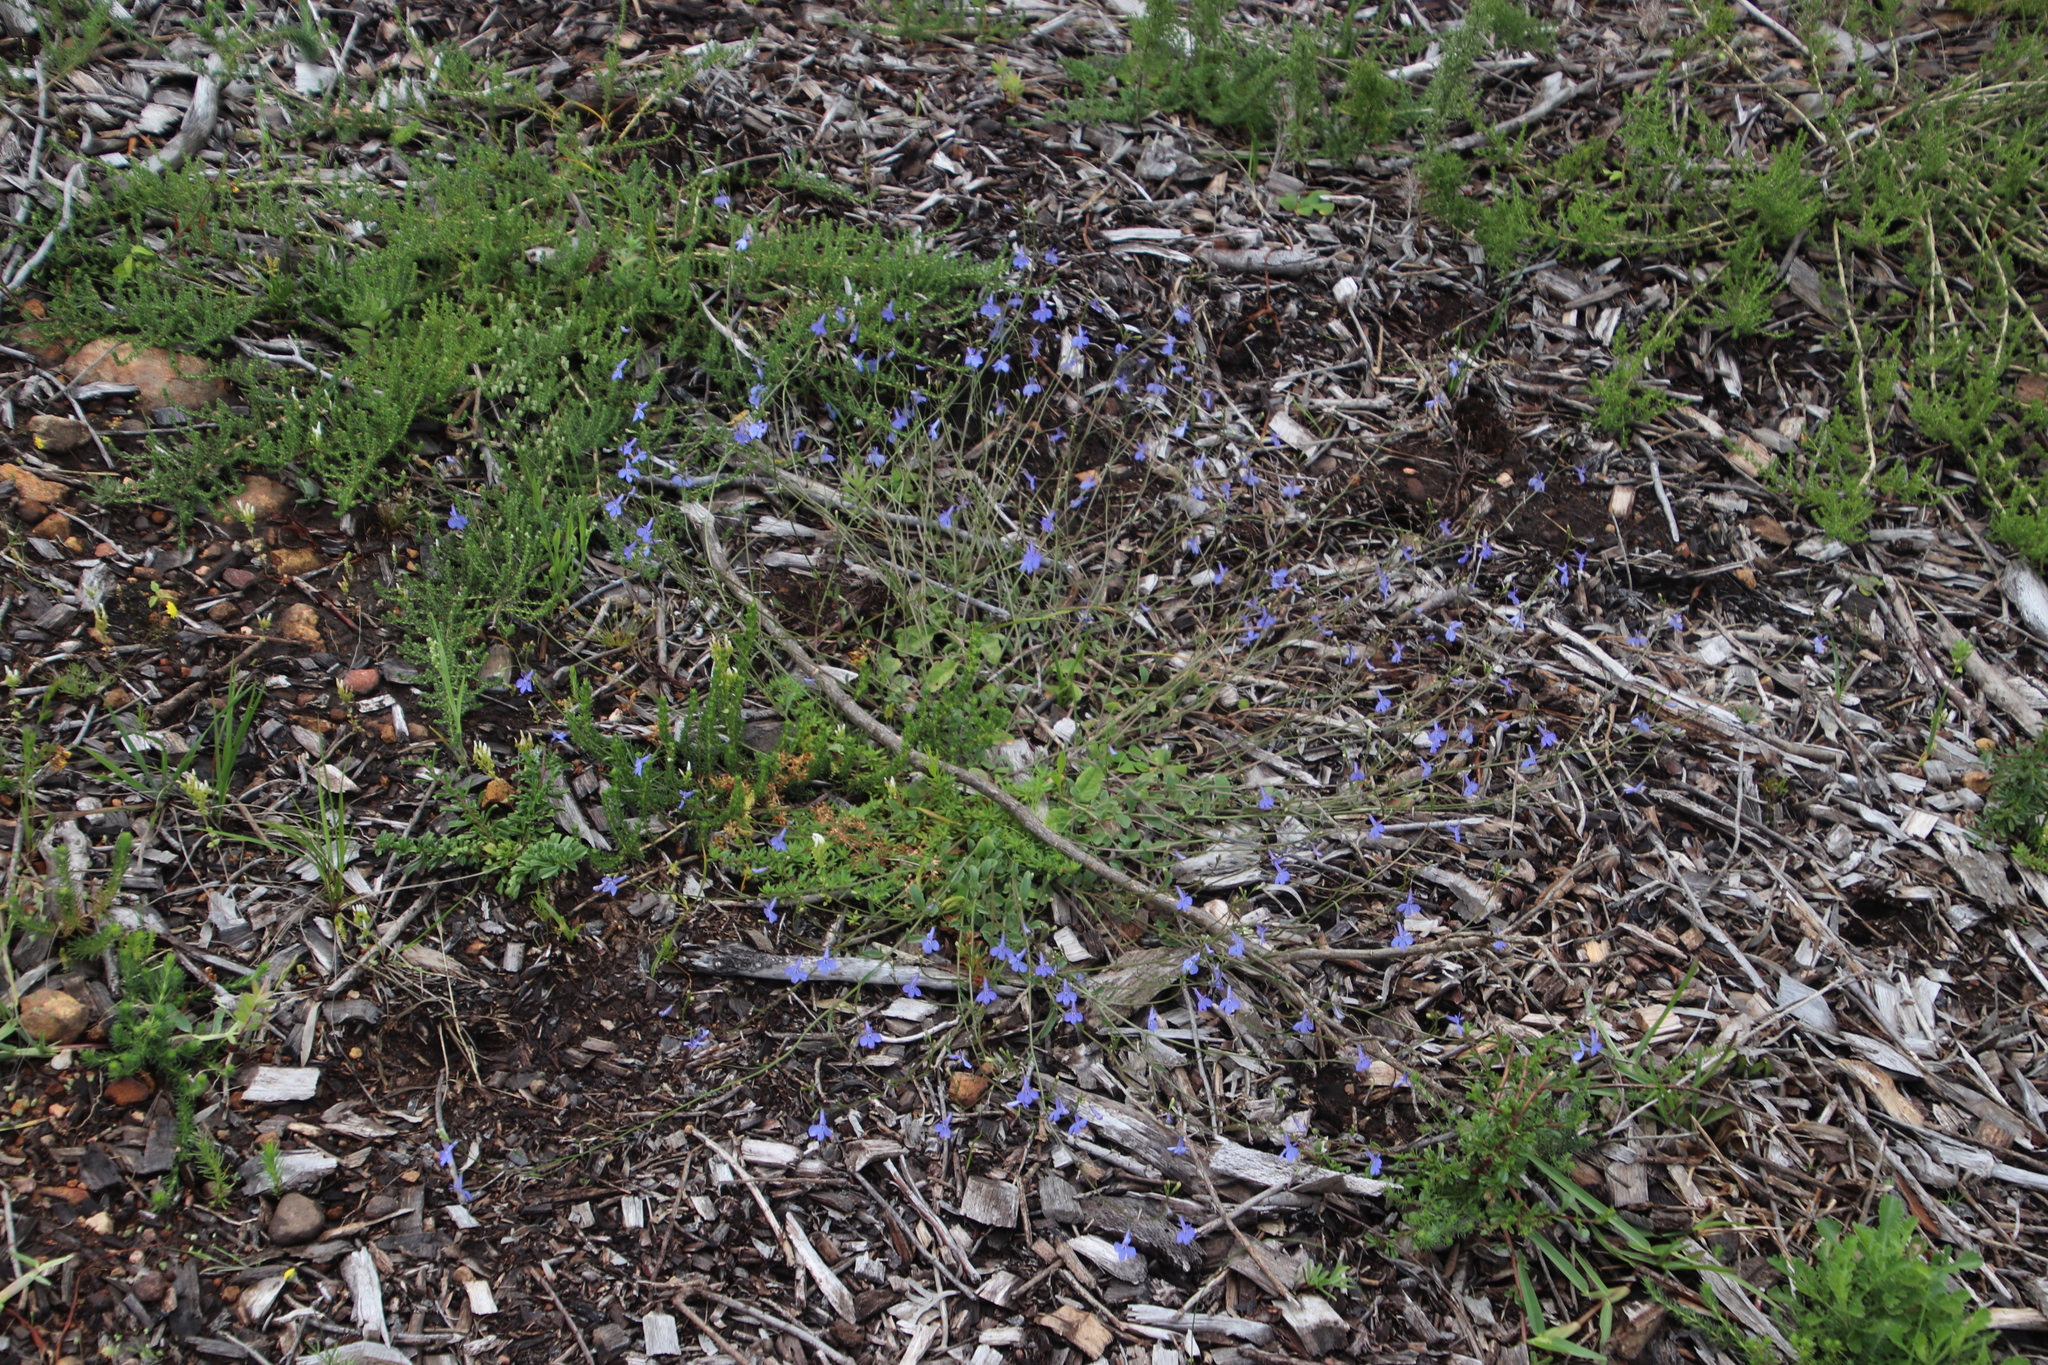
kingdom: Plantae
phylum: Tracheophyta
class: Magnoliopsida
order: Asterales
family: Campanulaceae
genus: Lobelia
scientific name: Lobelia erinus
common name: Edging lobelia
